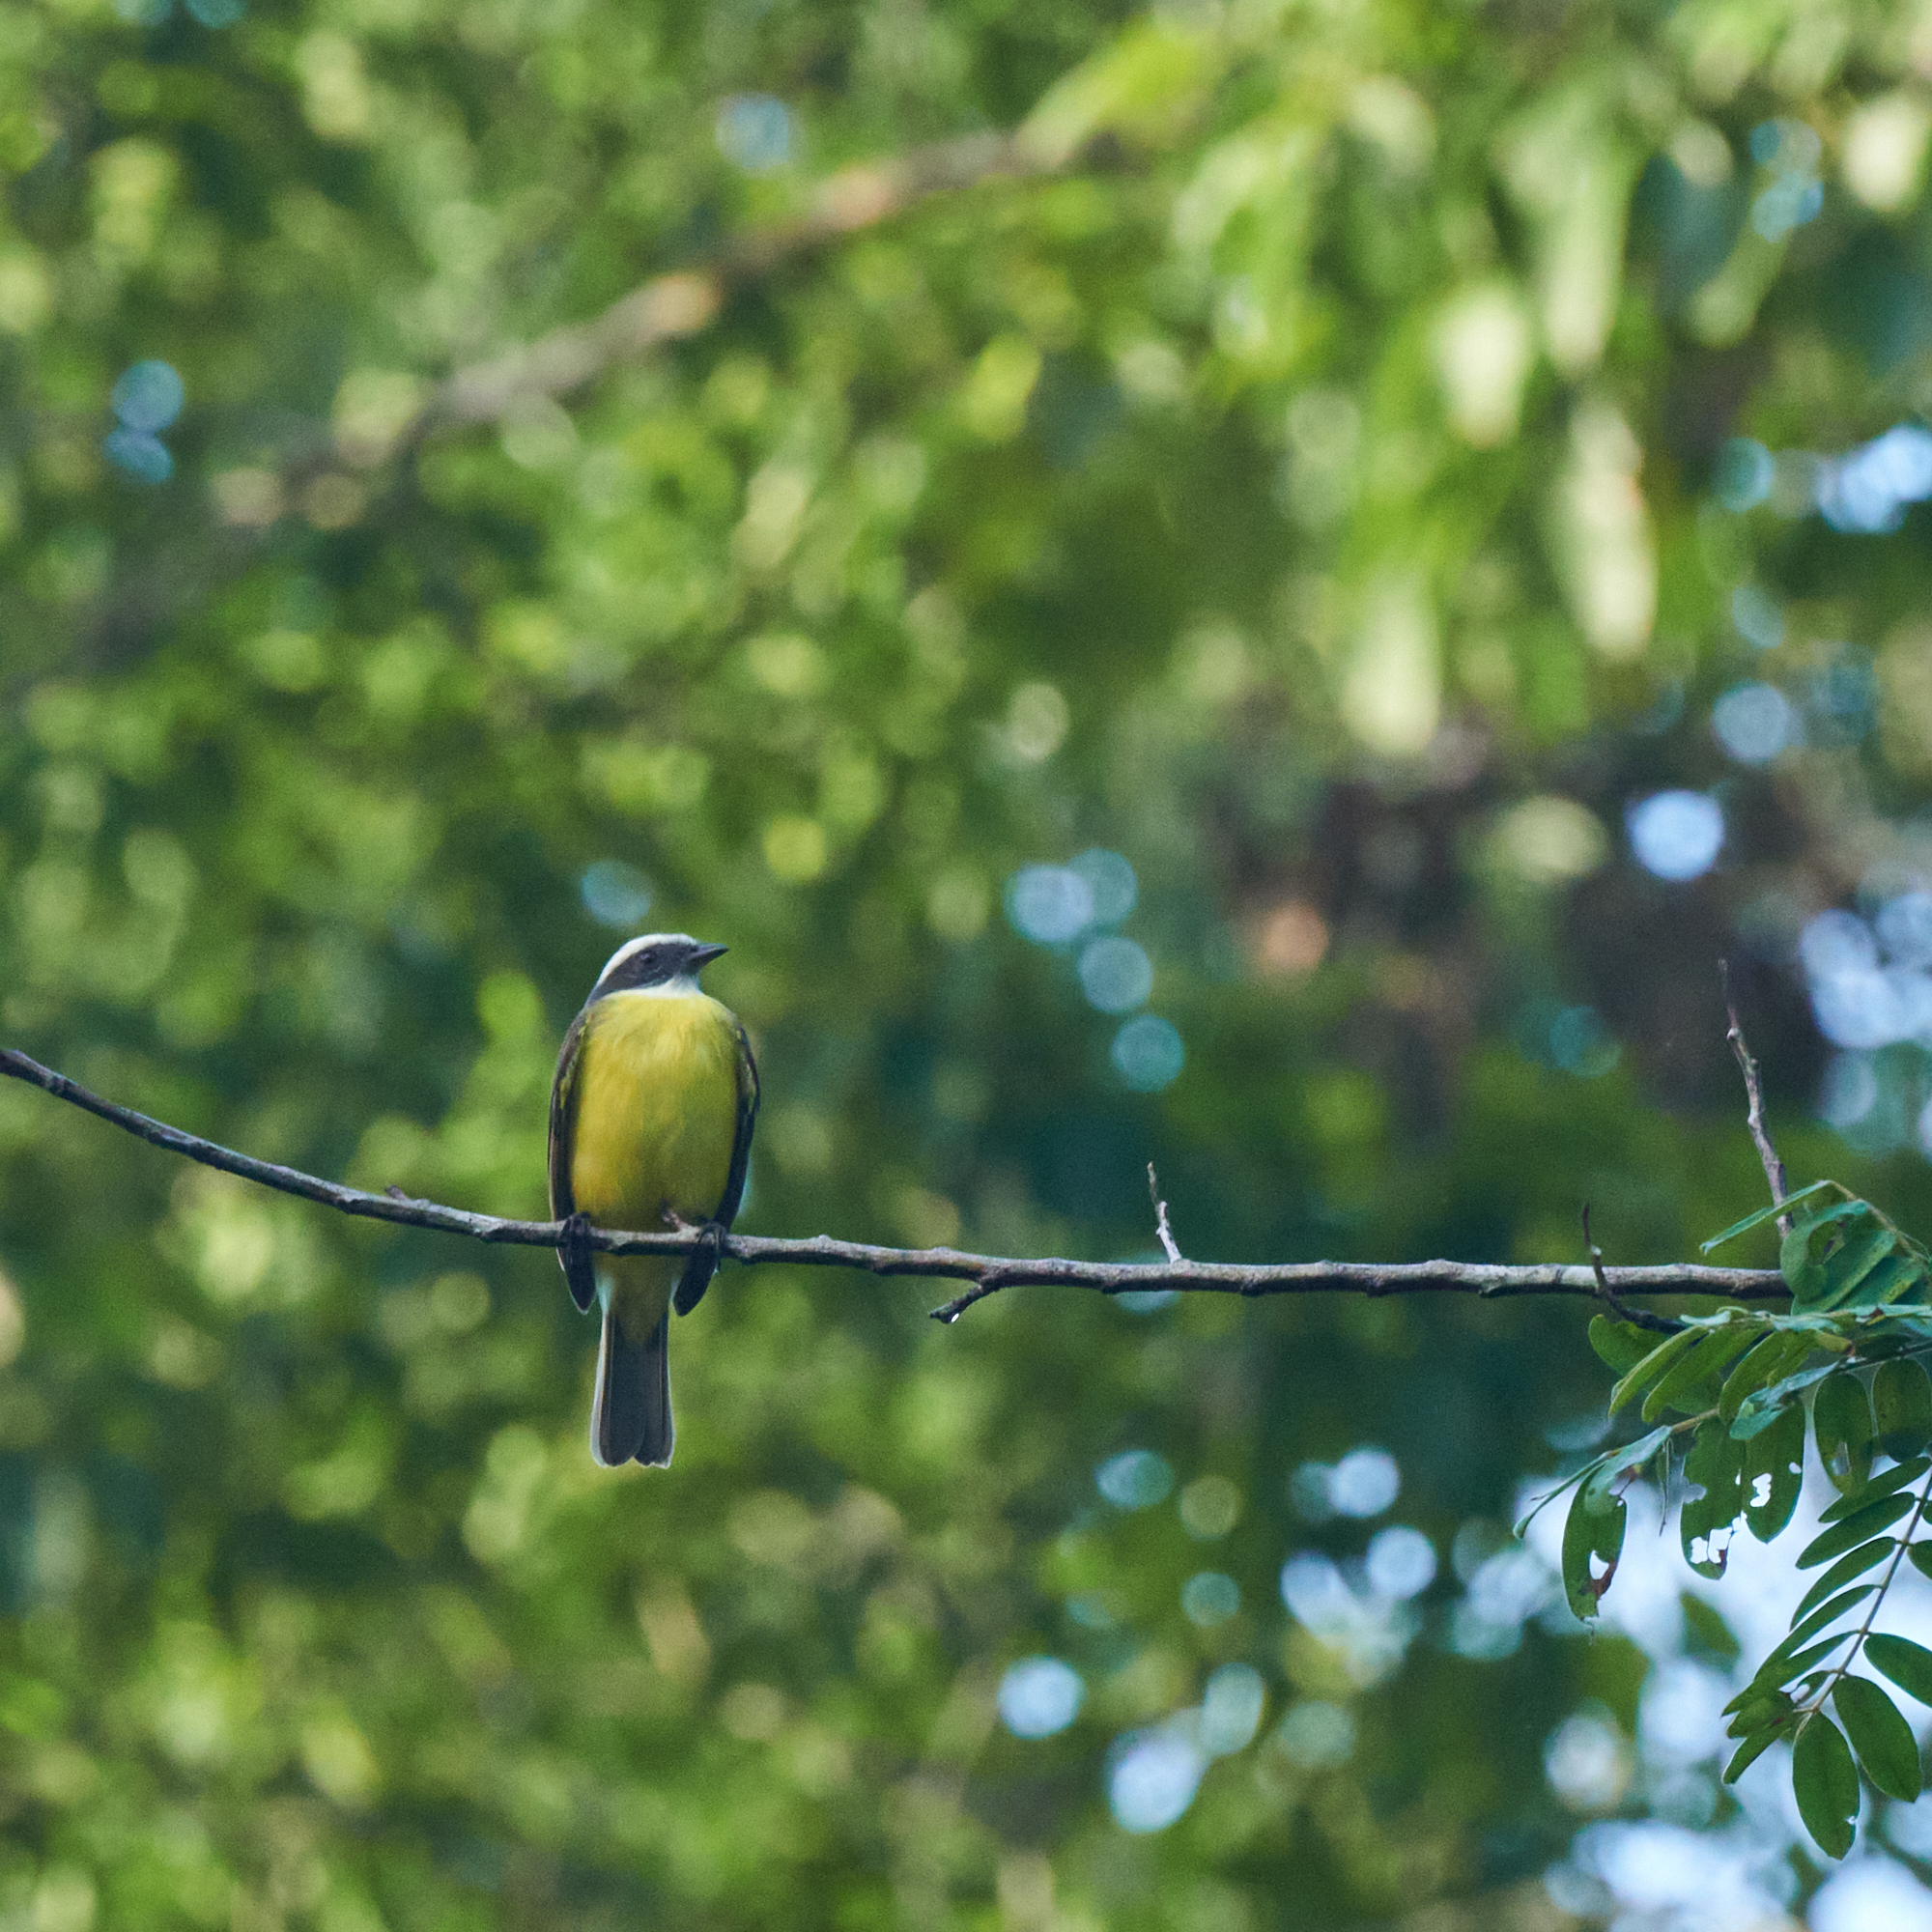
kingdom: Animalia
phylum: Chordata
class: Aves
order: Passeriformes
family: Tyrannidae
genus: Myiozetetes
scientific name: Myiozetetes similis
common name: Social flycatcher
